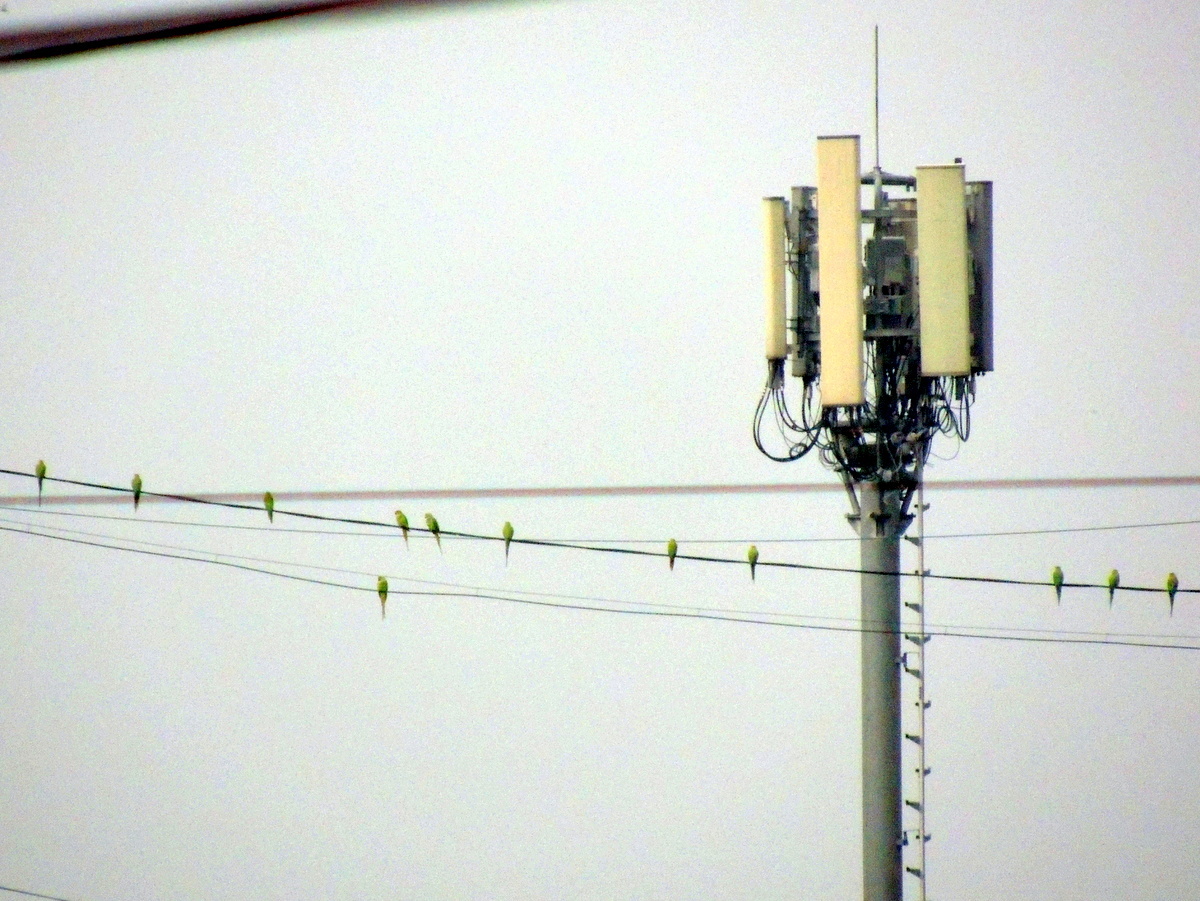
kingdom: Animalia
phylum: Chordata
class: Aves
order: Psittaciformes
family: Psittacidae
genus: Psittacula
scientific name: Psittacula krameri
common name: Rose-ringed parakeet
